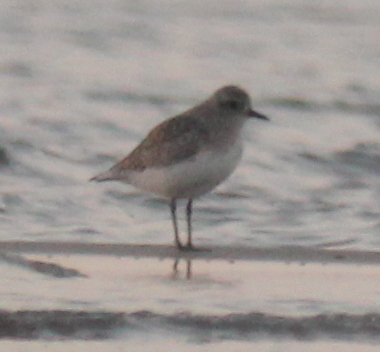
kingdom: Animalia
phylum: Chordata
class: Aves
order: Charadriiformes
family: Charadriidae
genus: Pluvialis
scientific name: Pluvialis squatarola
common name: Grey plover
